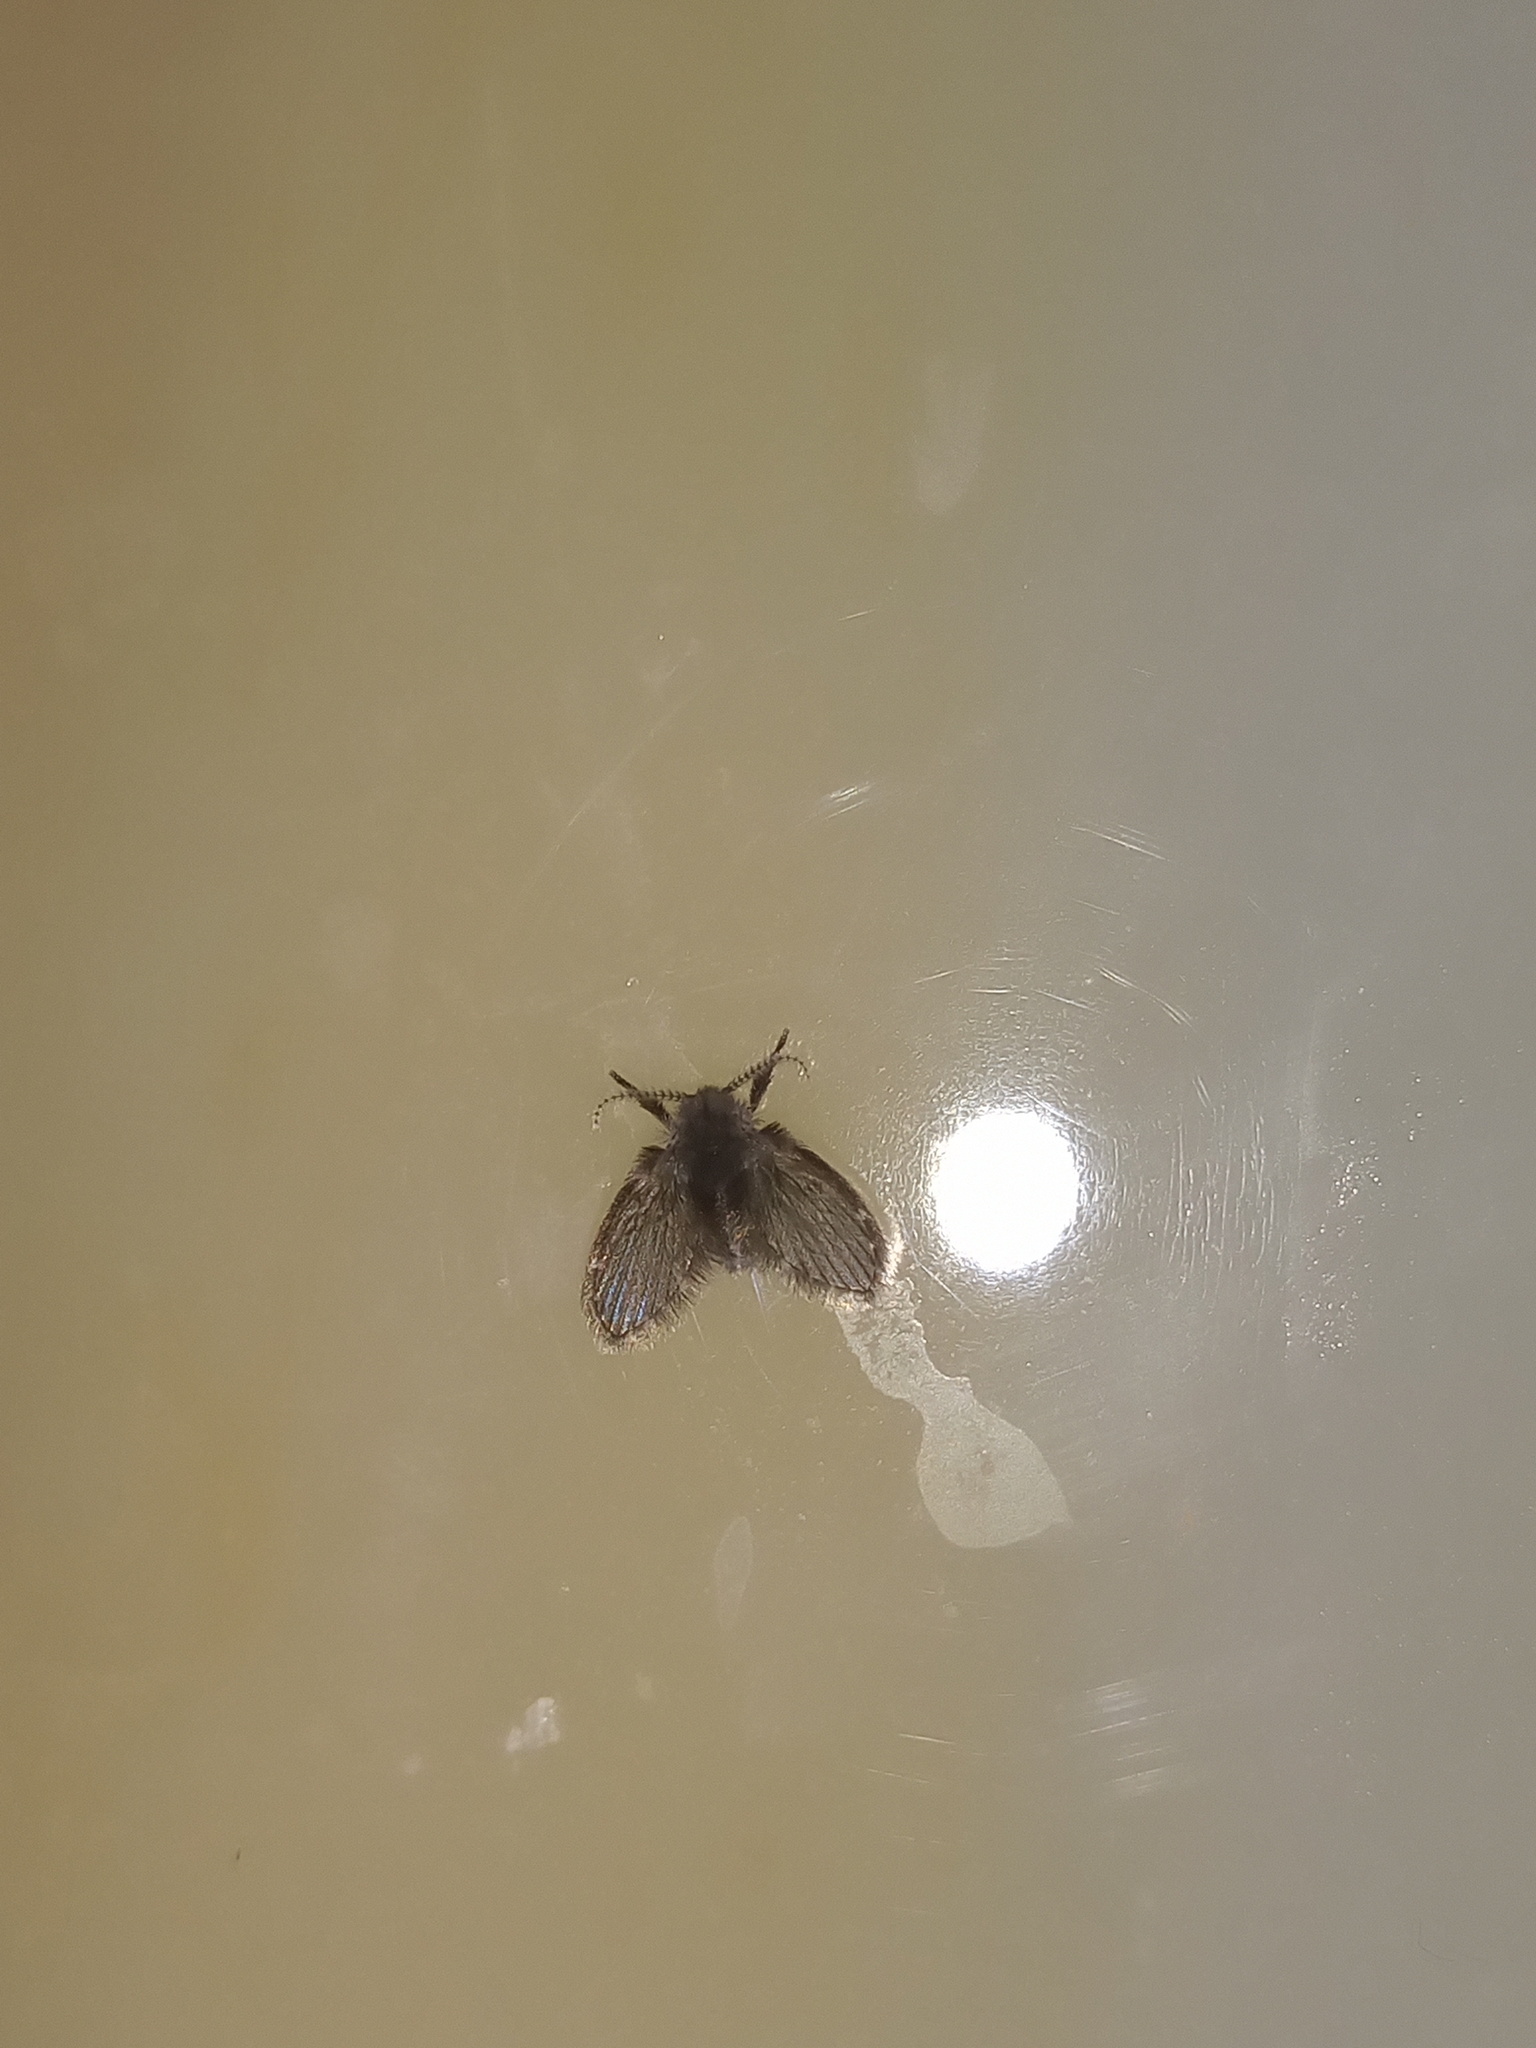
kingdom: Animalia
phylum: Arthropoda
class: Insecta
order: Diptera
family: Psychodidae
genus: Clogmia
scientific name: Clogmia albipunctatus
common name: White-spotted moth fly
